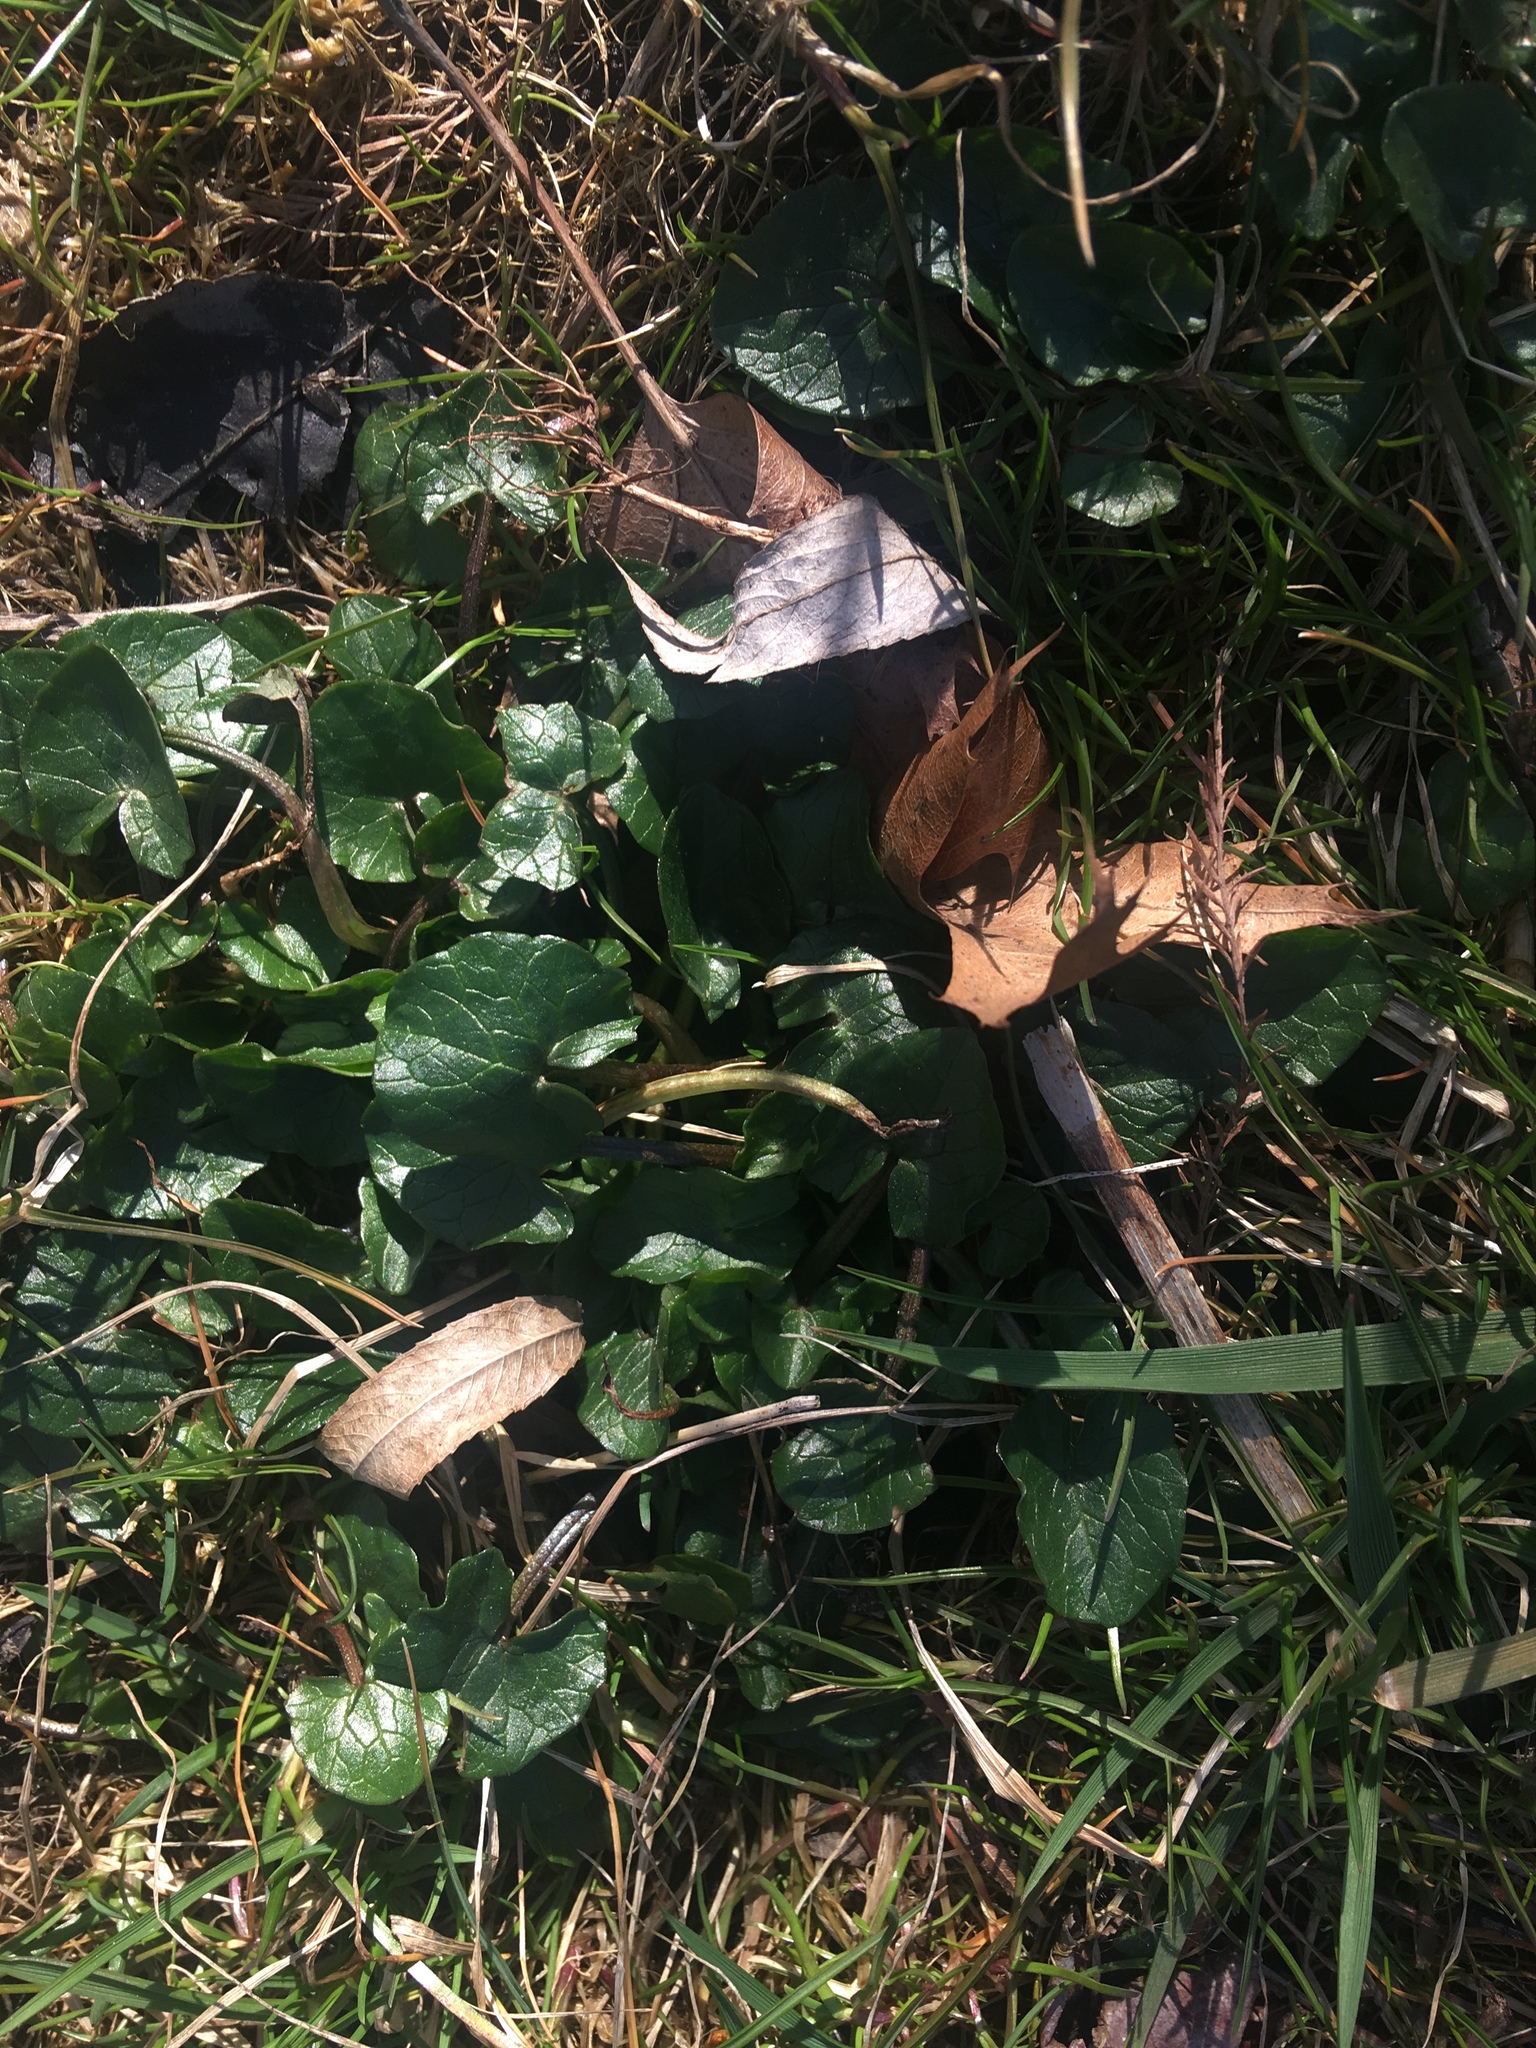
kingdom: Plantae
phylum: Tracheophyta
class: Magnoliopsida
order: Ranunculales
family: Ranunculaceae
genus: Ficaria
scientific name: Ficaria verna
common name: Lesser celandine
